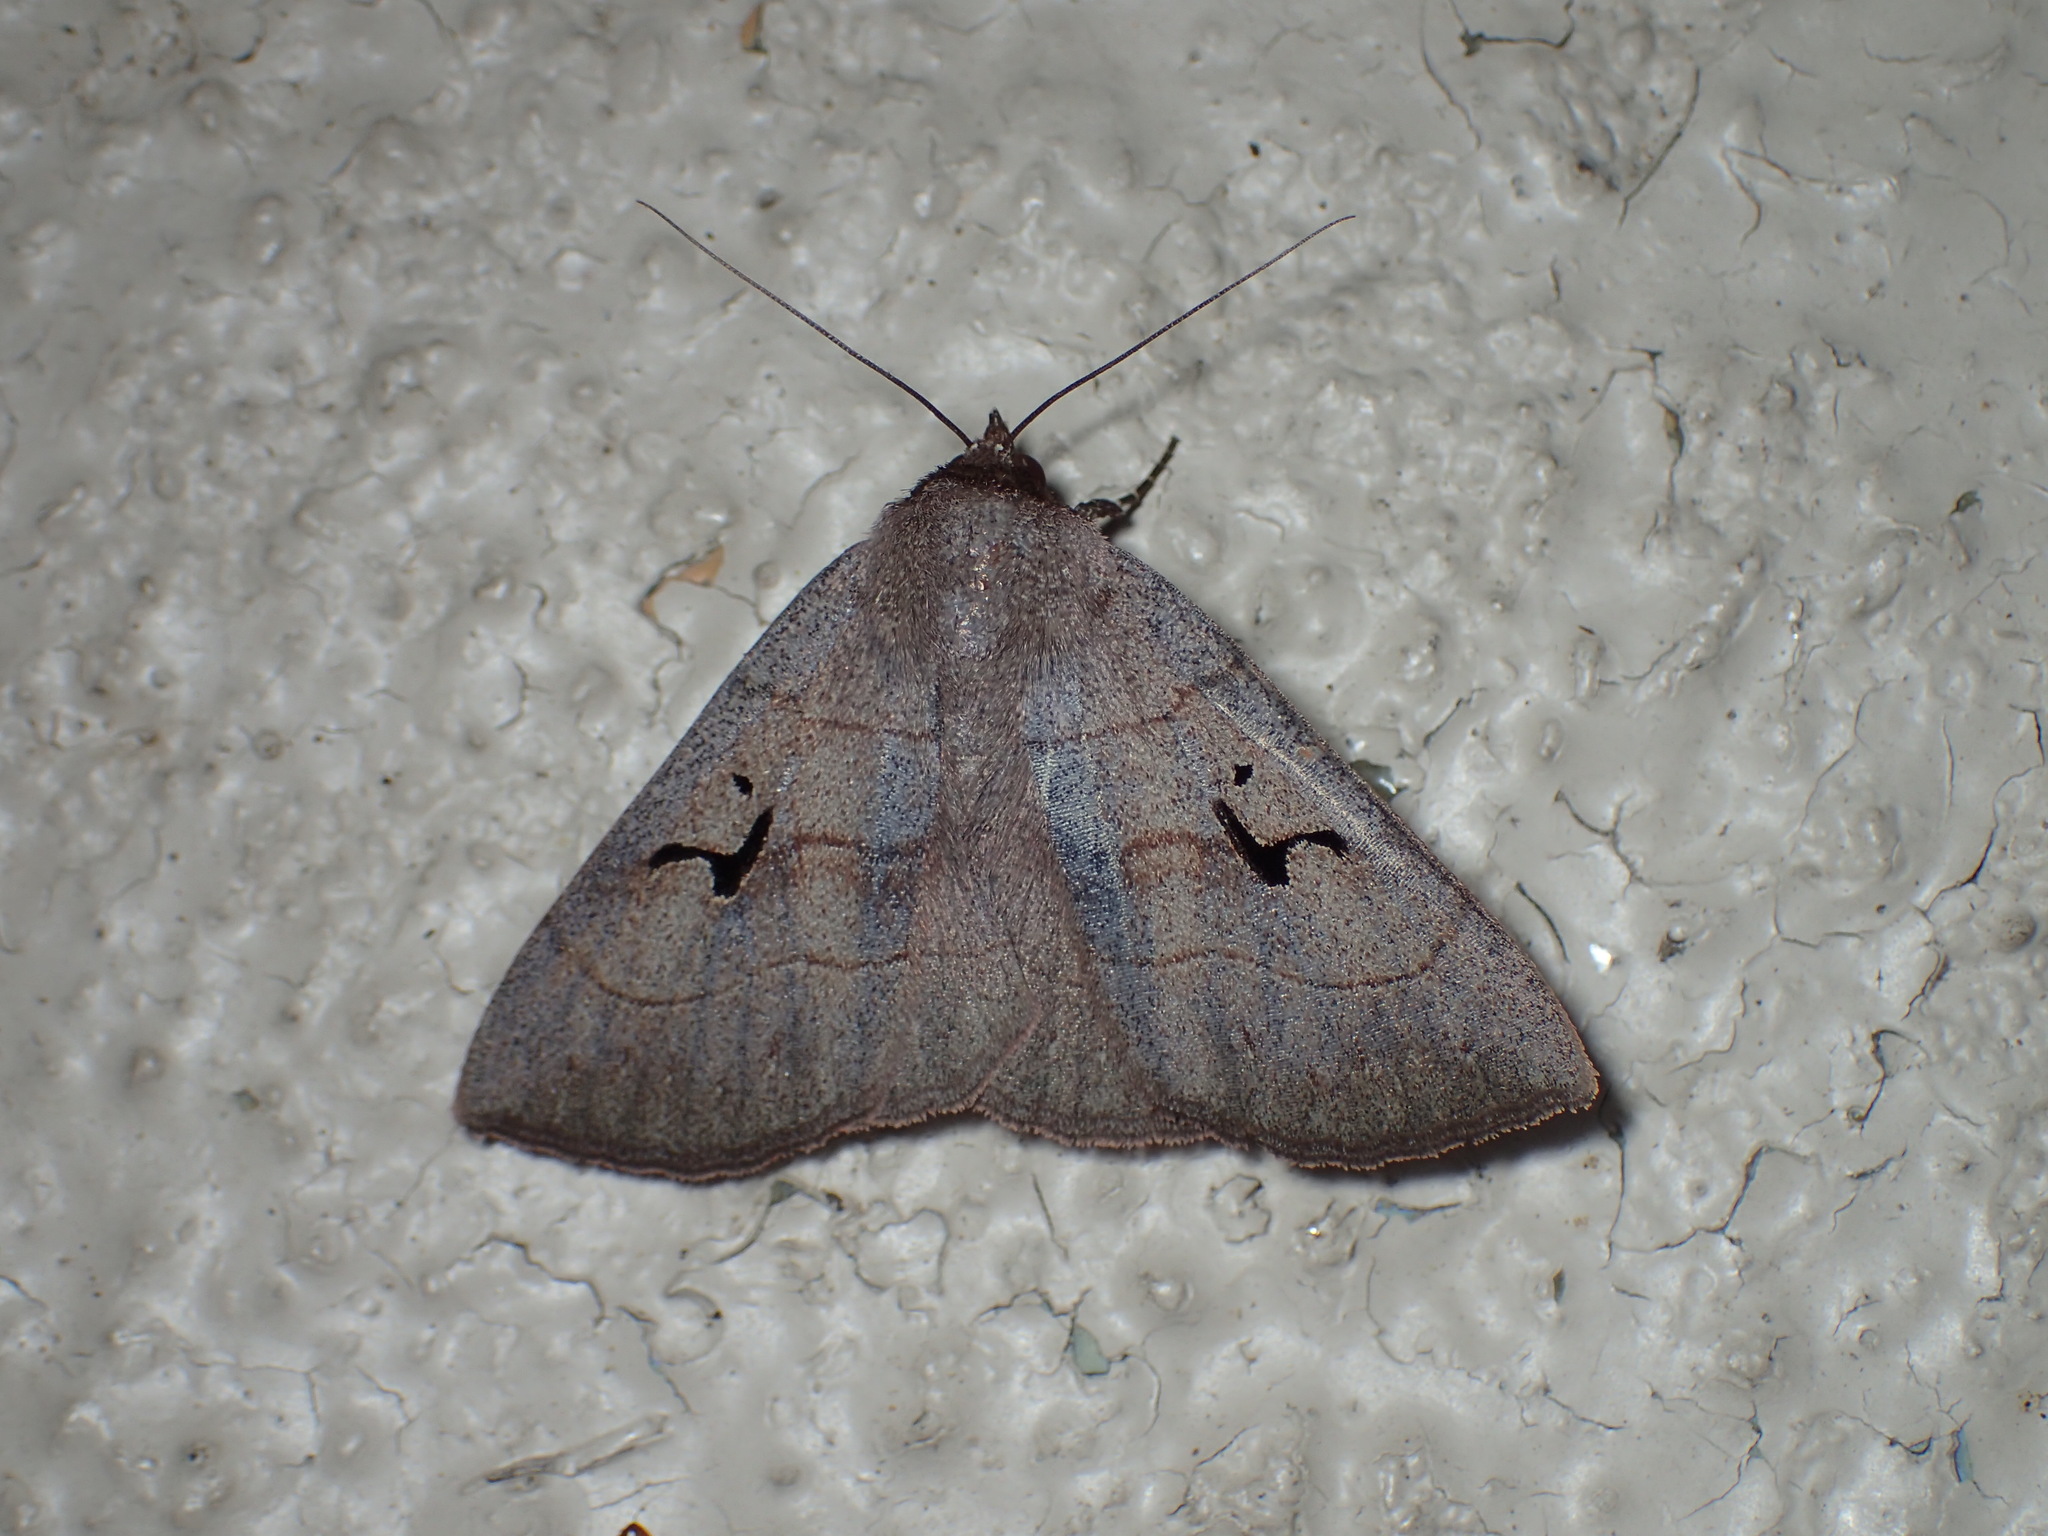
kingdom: Animalia
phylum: Arthropoda
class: Insecta
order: Lepidoptera
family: Erebidae
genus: Panopoda
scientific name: Panopoda carneicosta
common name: Brown panopoda moth
